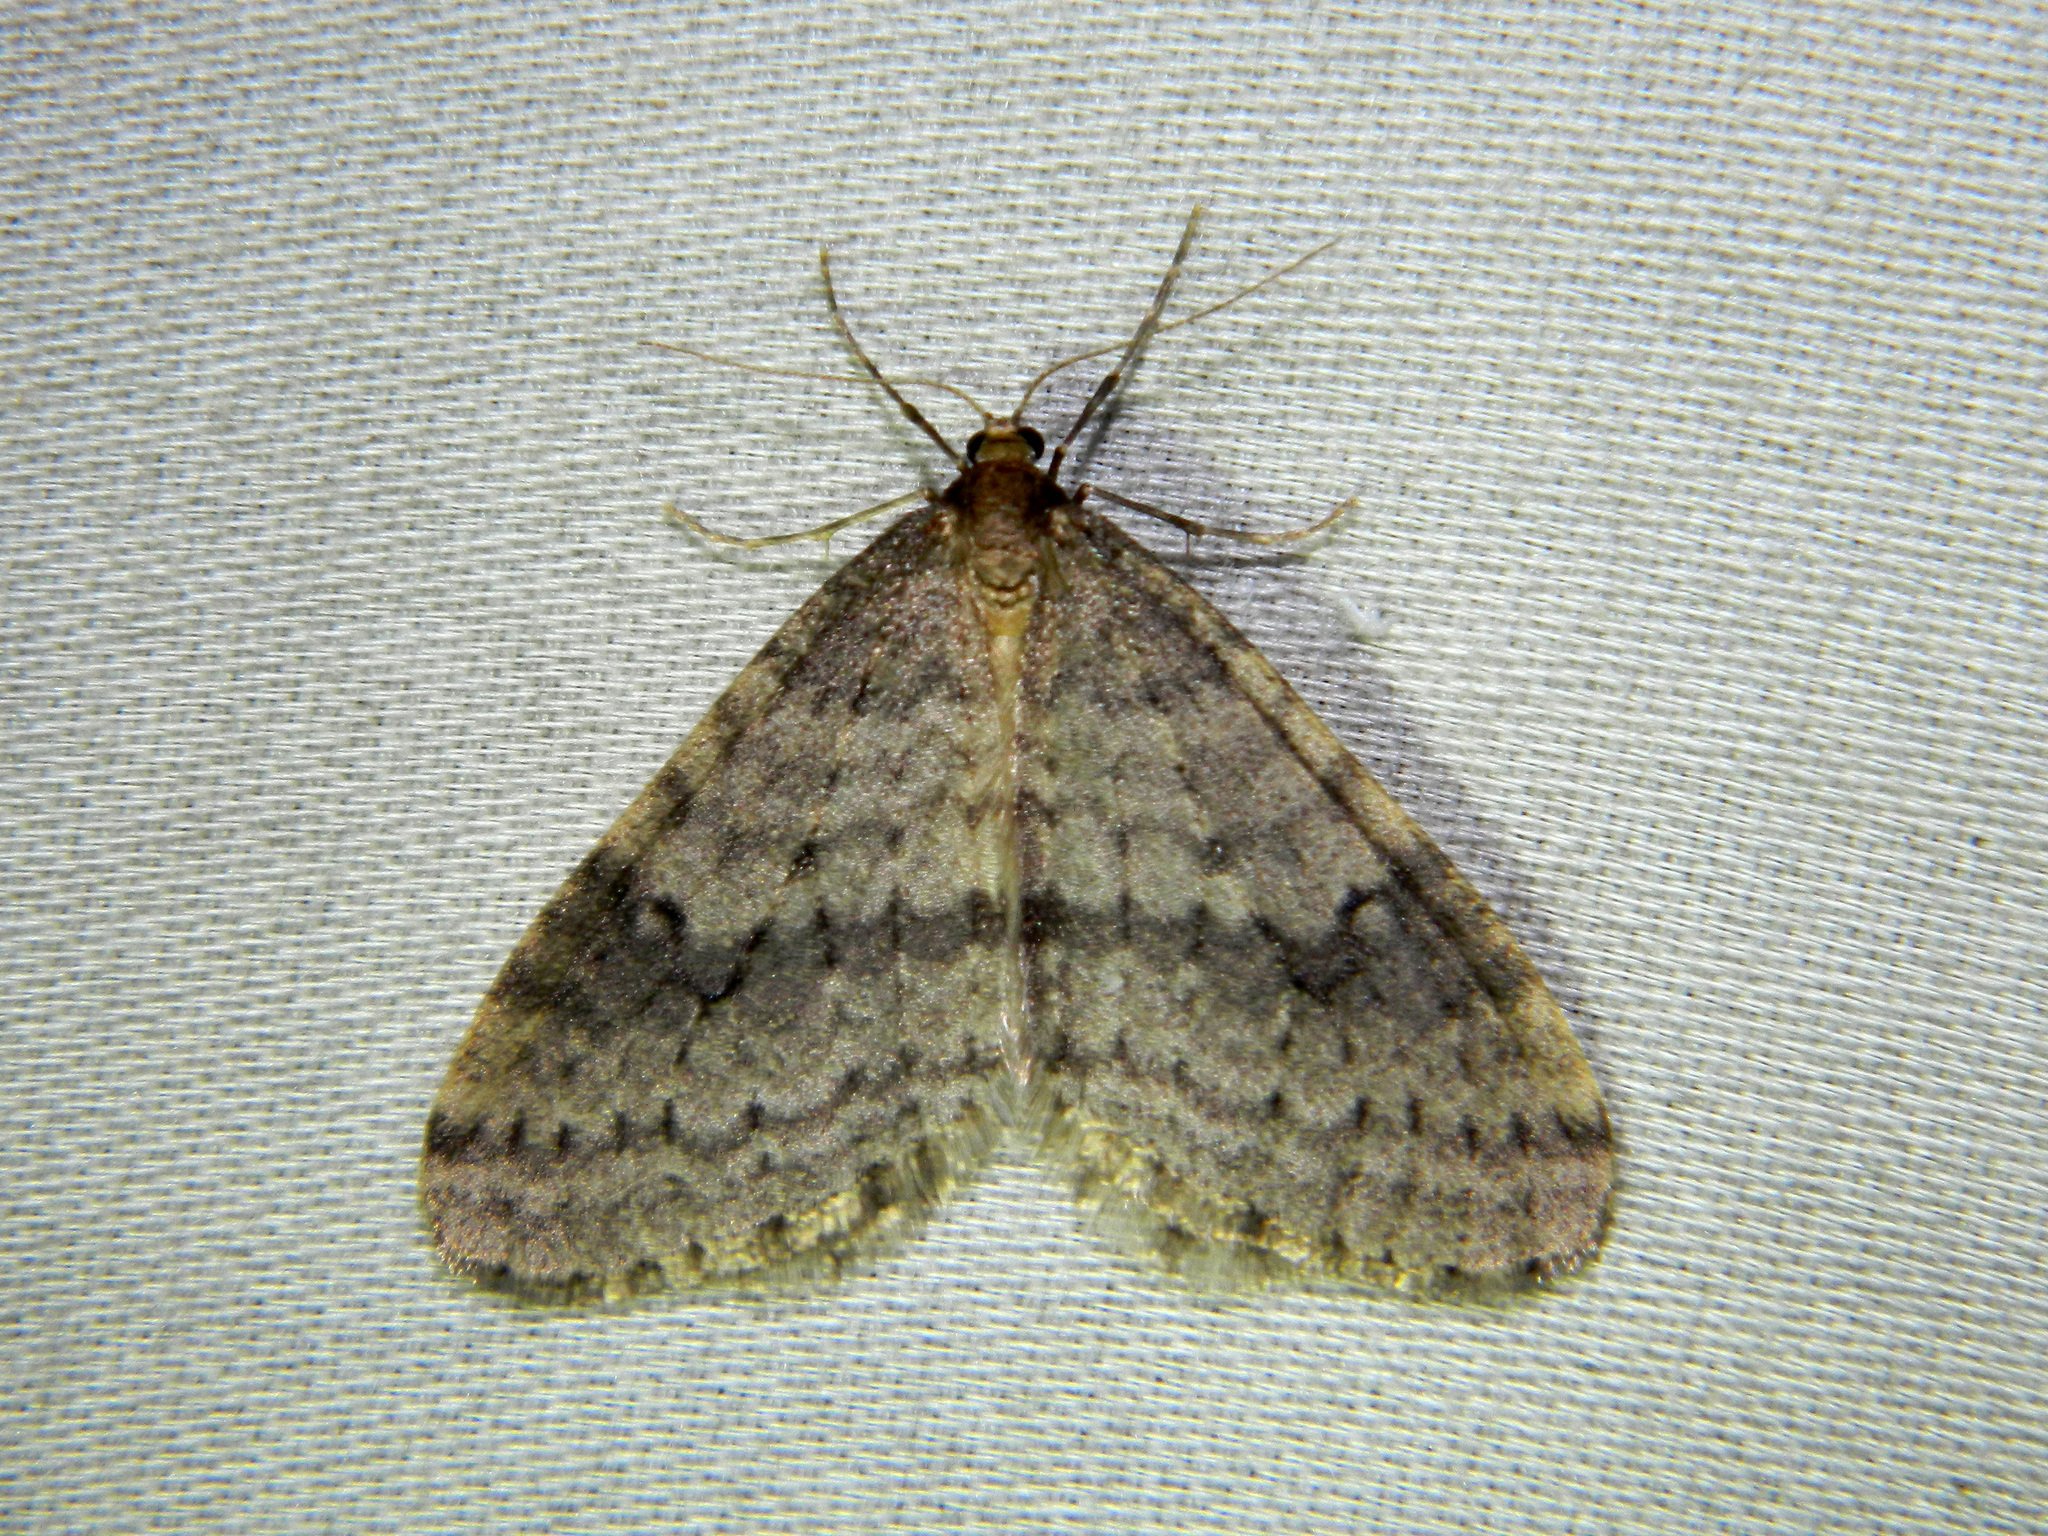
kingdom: Animalia
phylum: Arthropoda
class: Insecta
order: Lepidoptera
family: Geometridae
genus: Operophtera
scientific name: Operophtera bruceata
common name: Bruce spanworm
